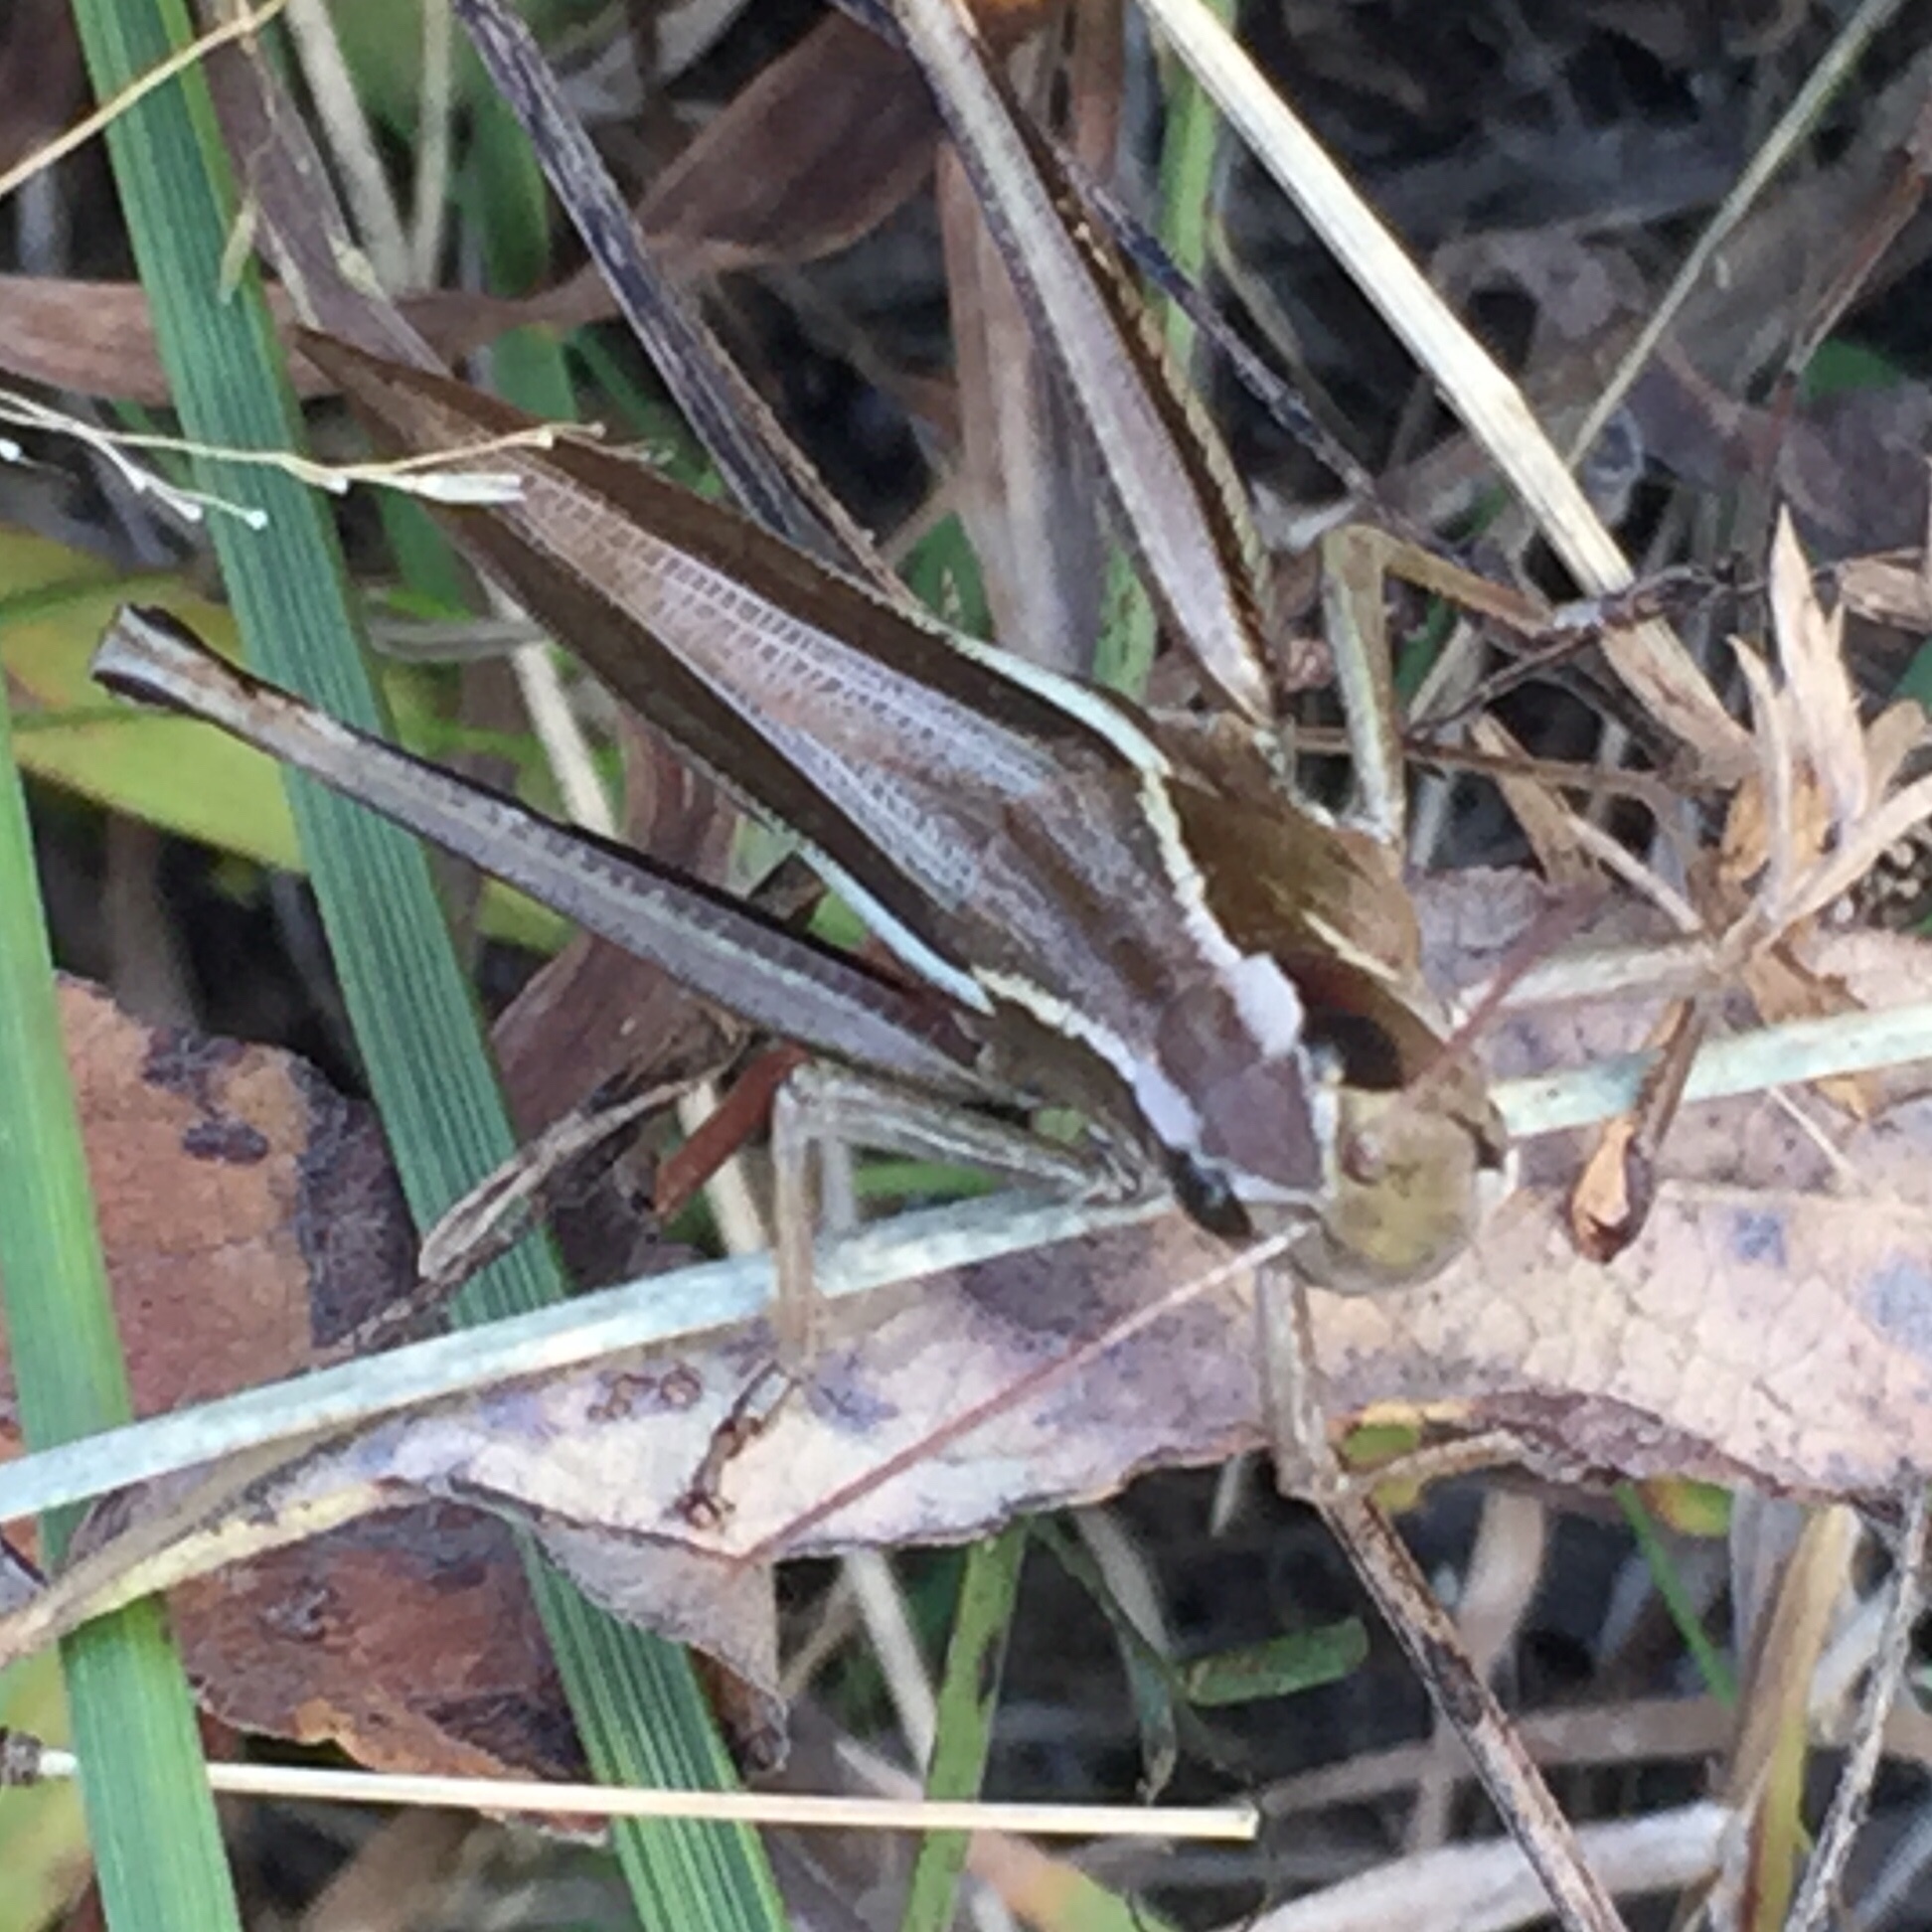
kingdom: Animalia
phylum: Arthropoda
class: Insecta
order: Orthoptera
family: Acrididae
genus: Stethophyma
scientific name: Stethophyma lineatum
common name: Striped sedge locust
